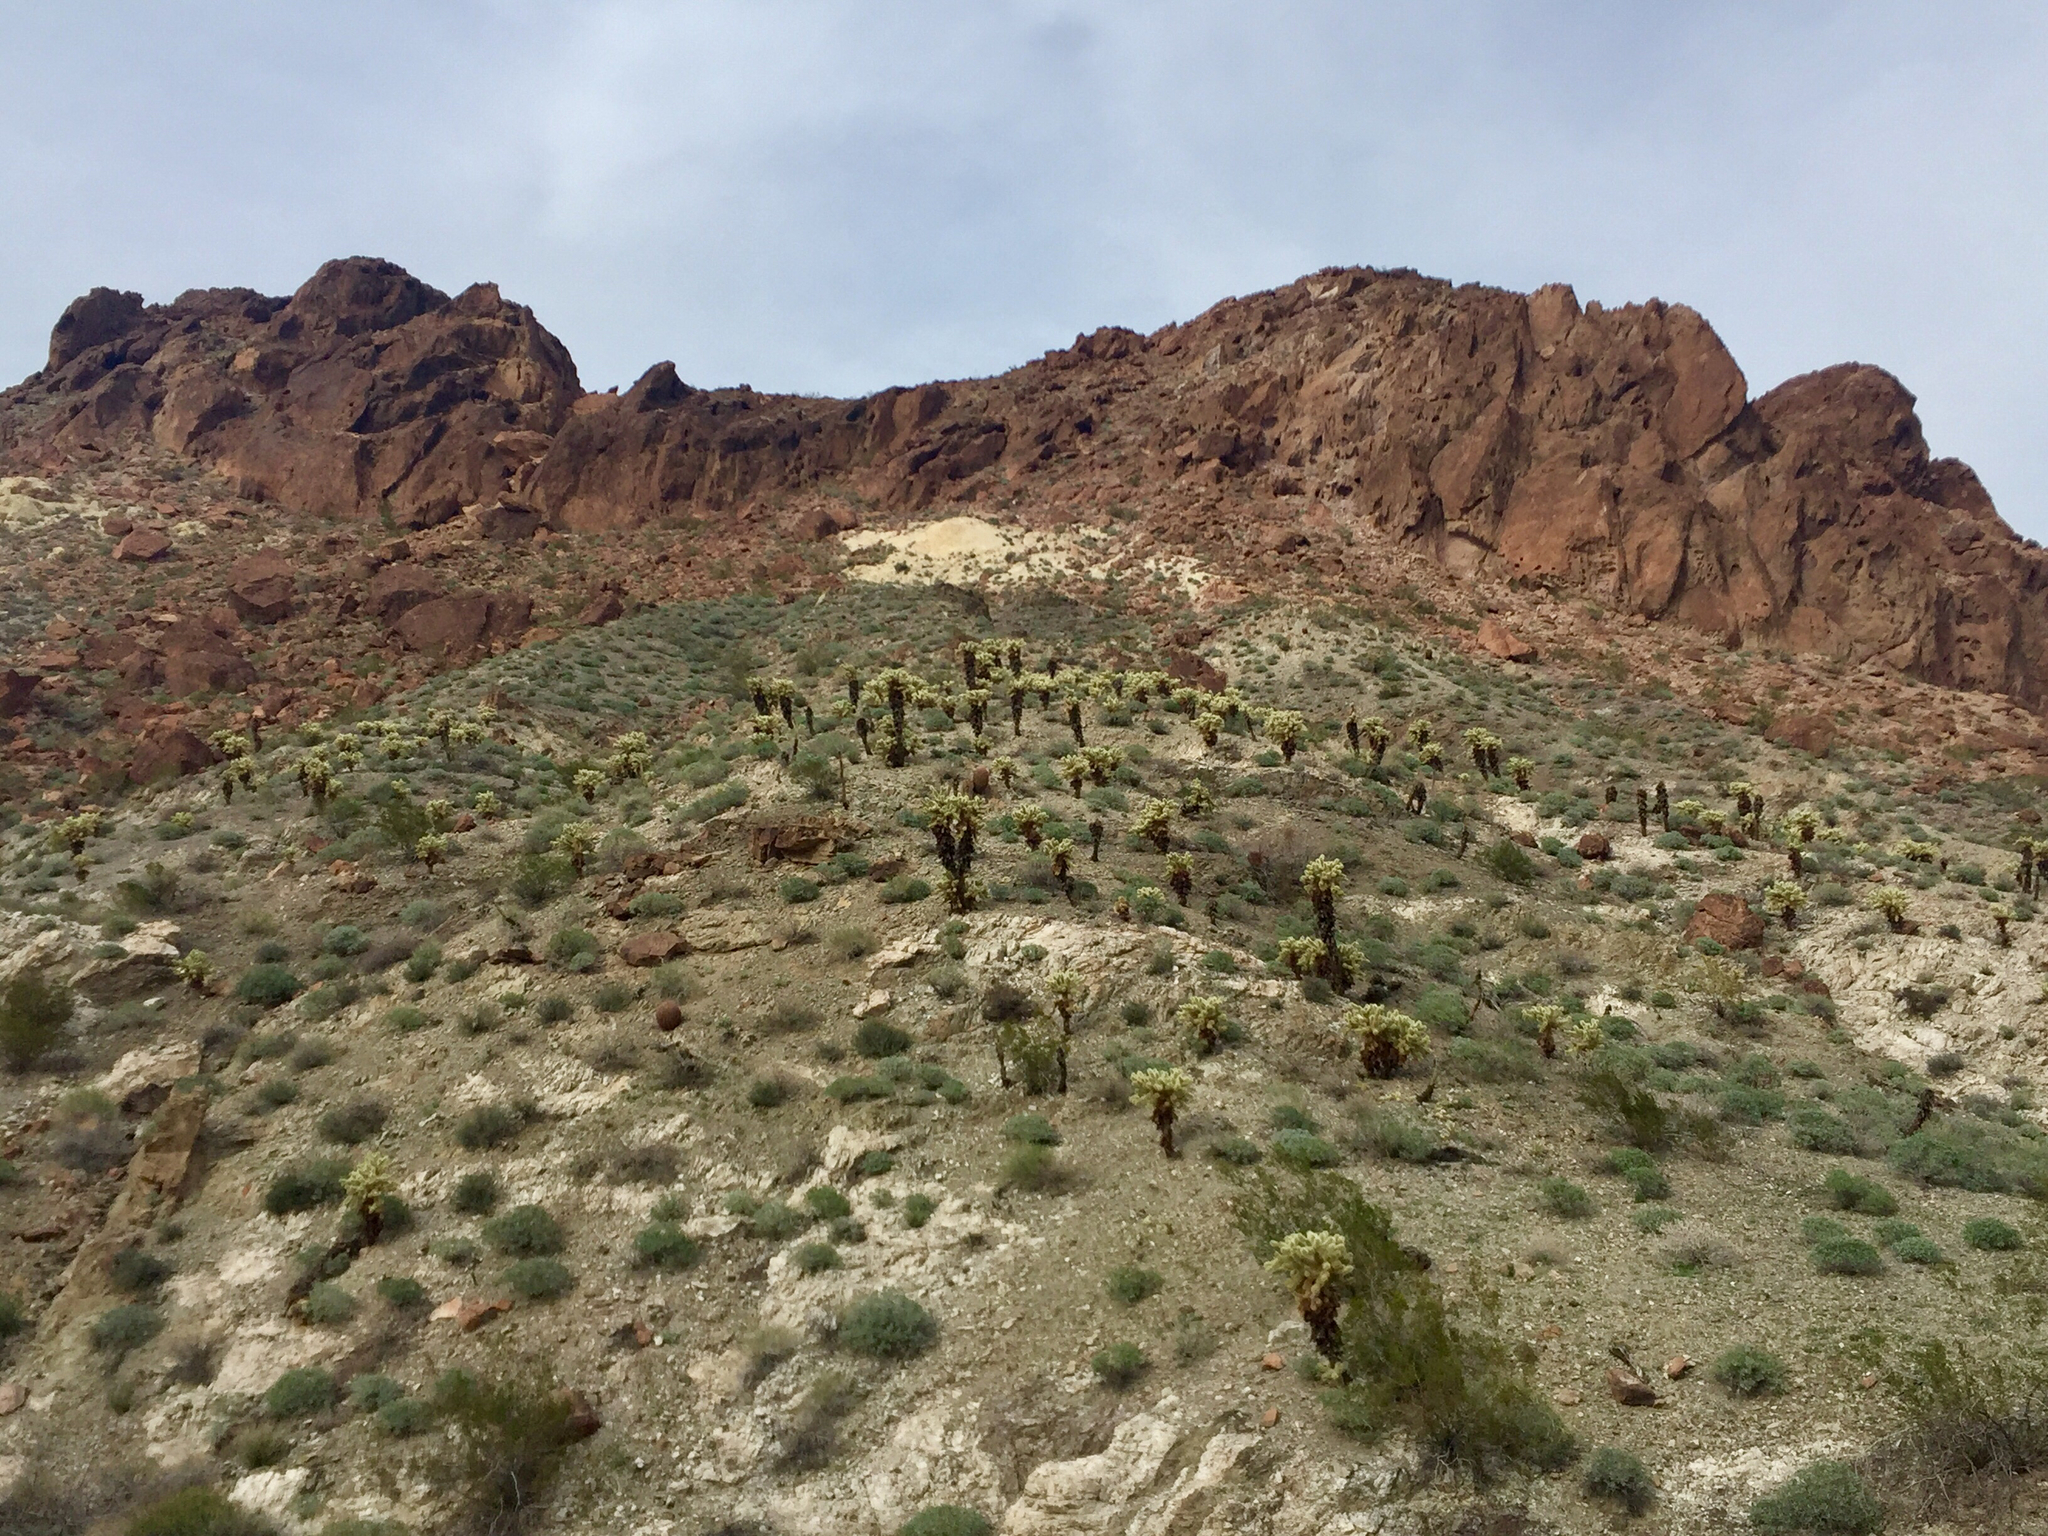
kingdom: Plantae
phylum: Tracheophyta
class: Magnoliopsida
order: Caryophyllales
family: Cactaceae
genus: Cylindropuntia
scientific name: Cylindropuntia fosbergii
